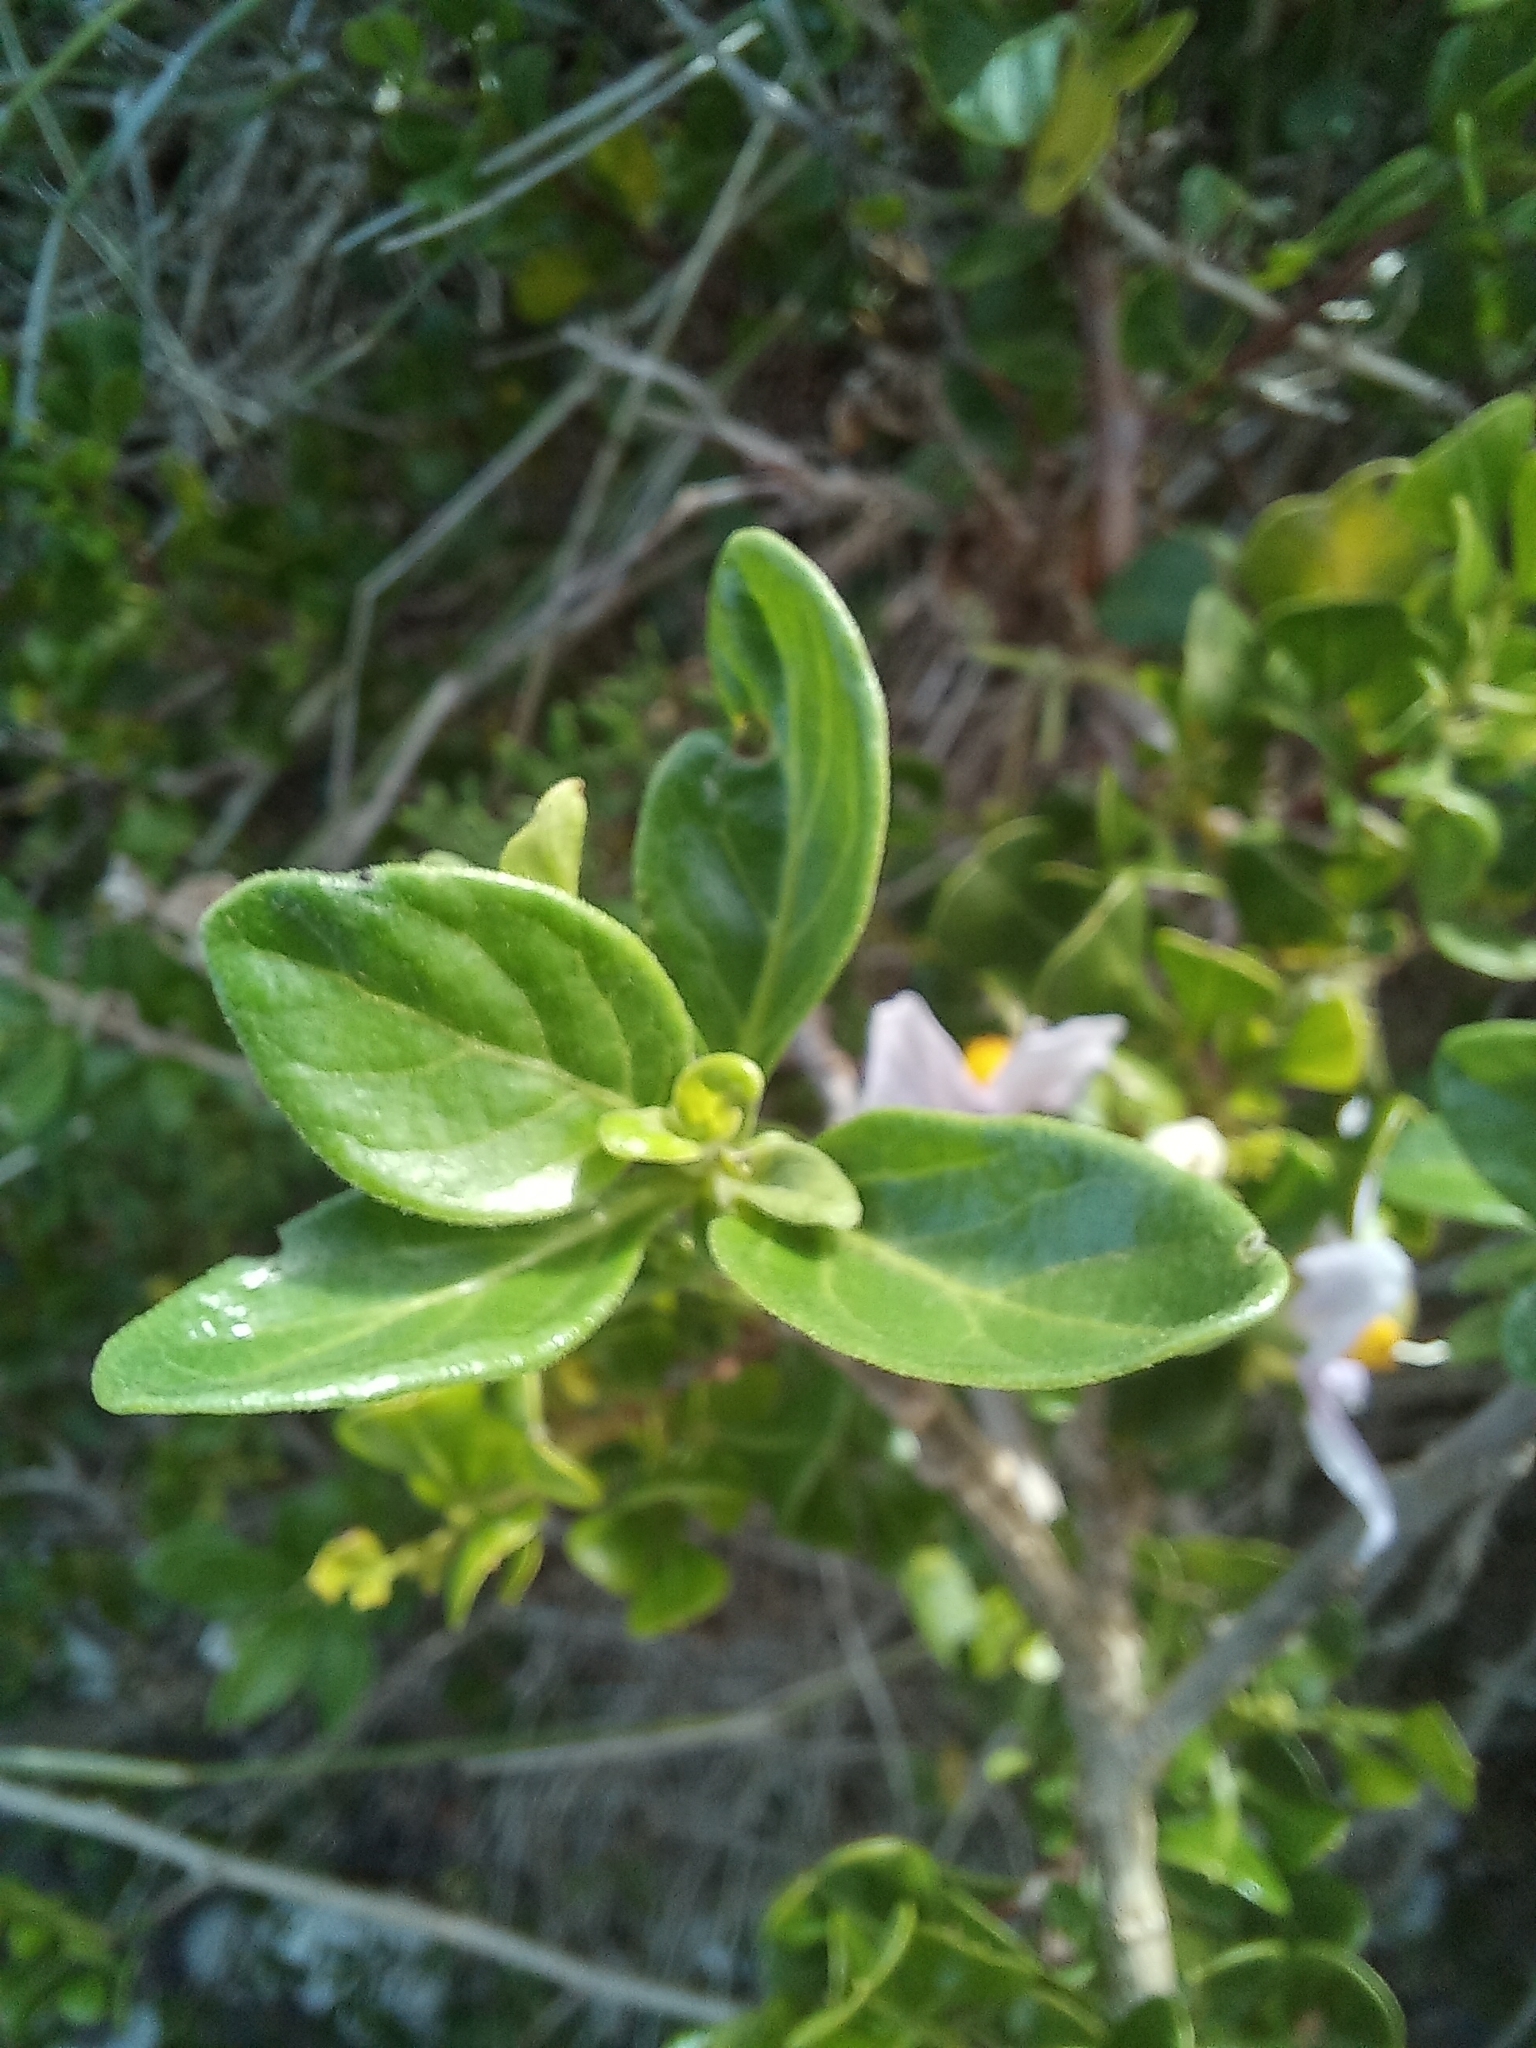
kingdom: Plantae
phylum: Tracheophyta
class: Magnoliopsida
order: Solanales
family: Solanaceae
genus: Solanum
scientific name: Solanum guineense
